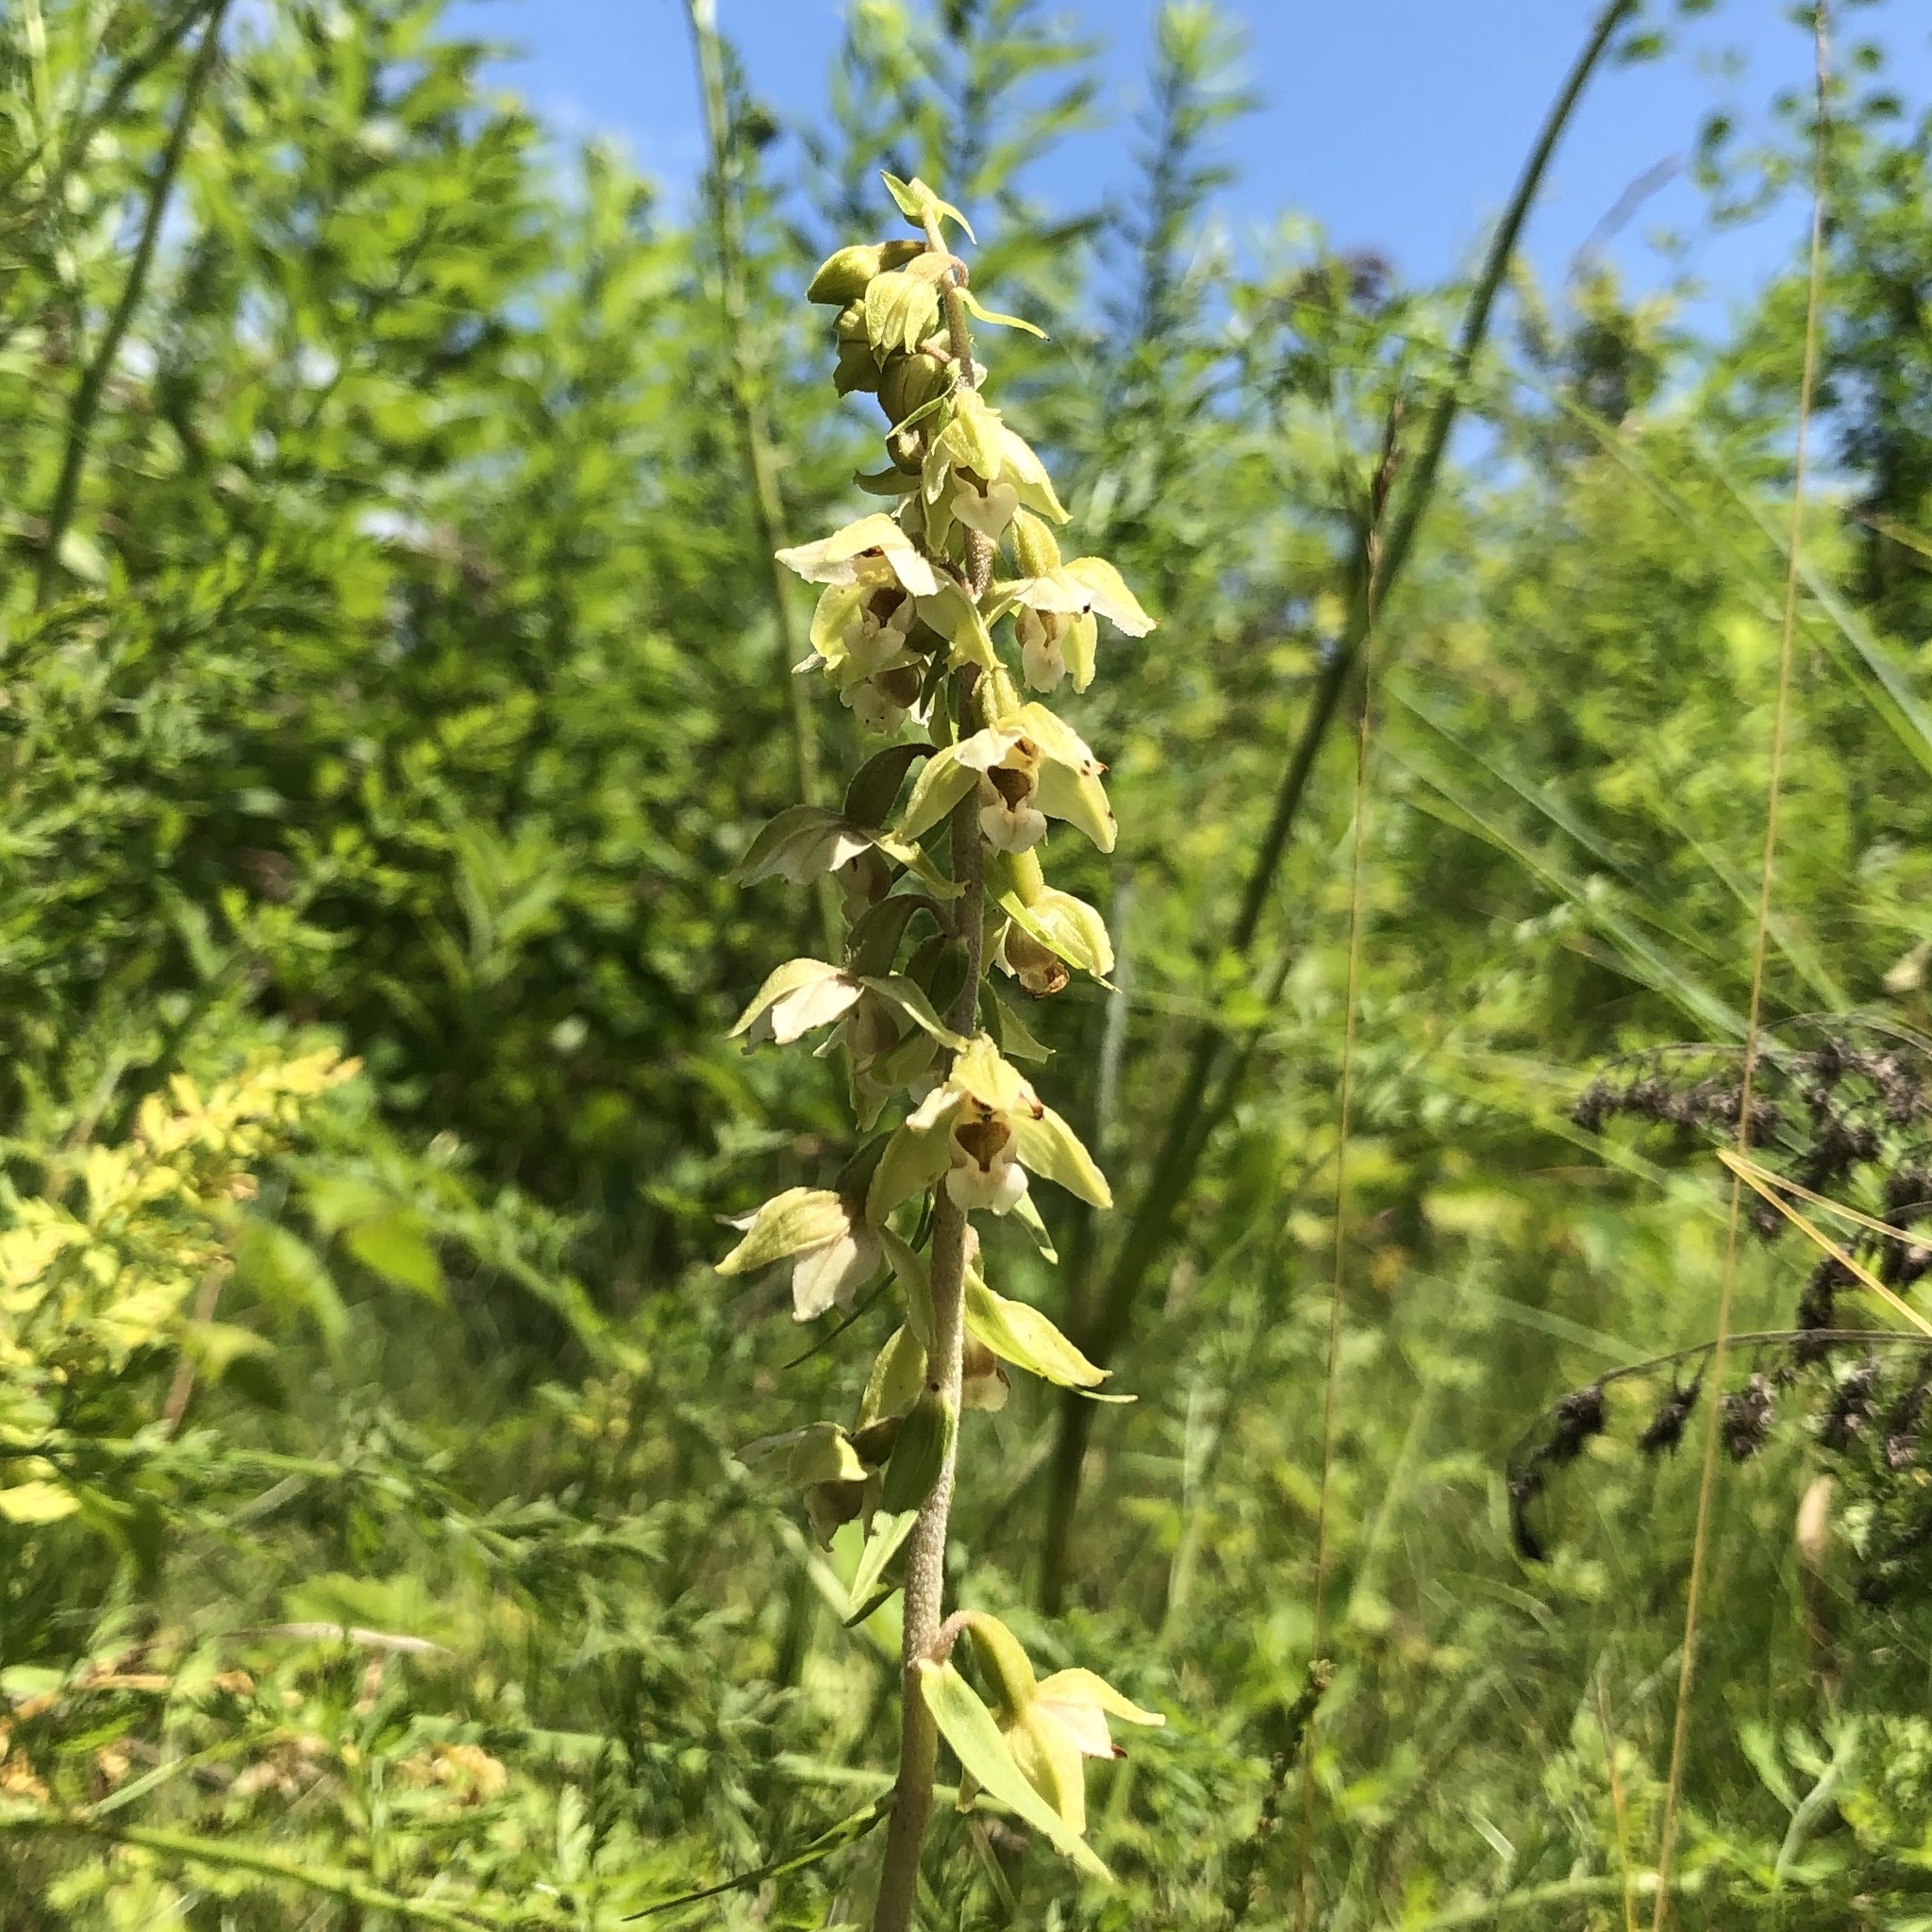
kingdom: Plantae
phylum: Tracheophyta
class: Liliopsida
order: Asparagales
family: Orchidaceae
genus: Epipactis
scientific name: Epipactis helleborine
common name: Broad-leaved helleborine
